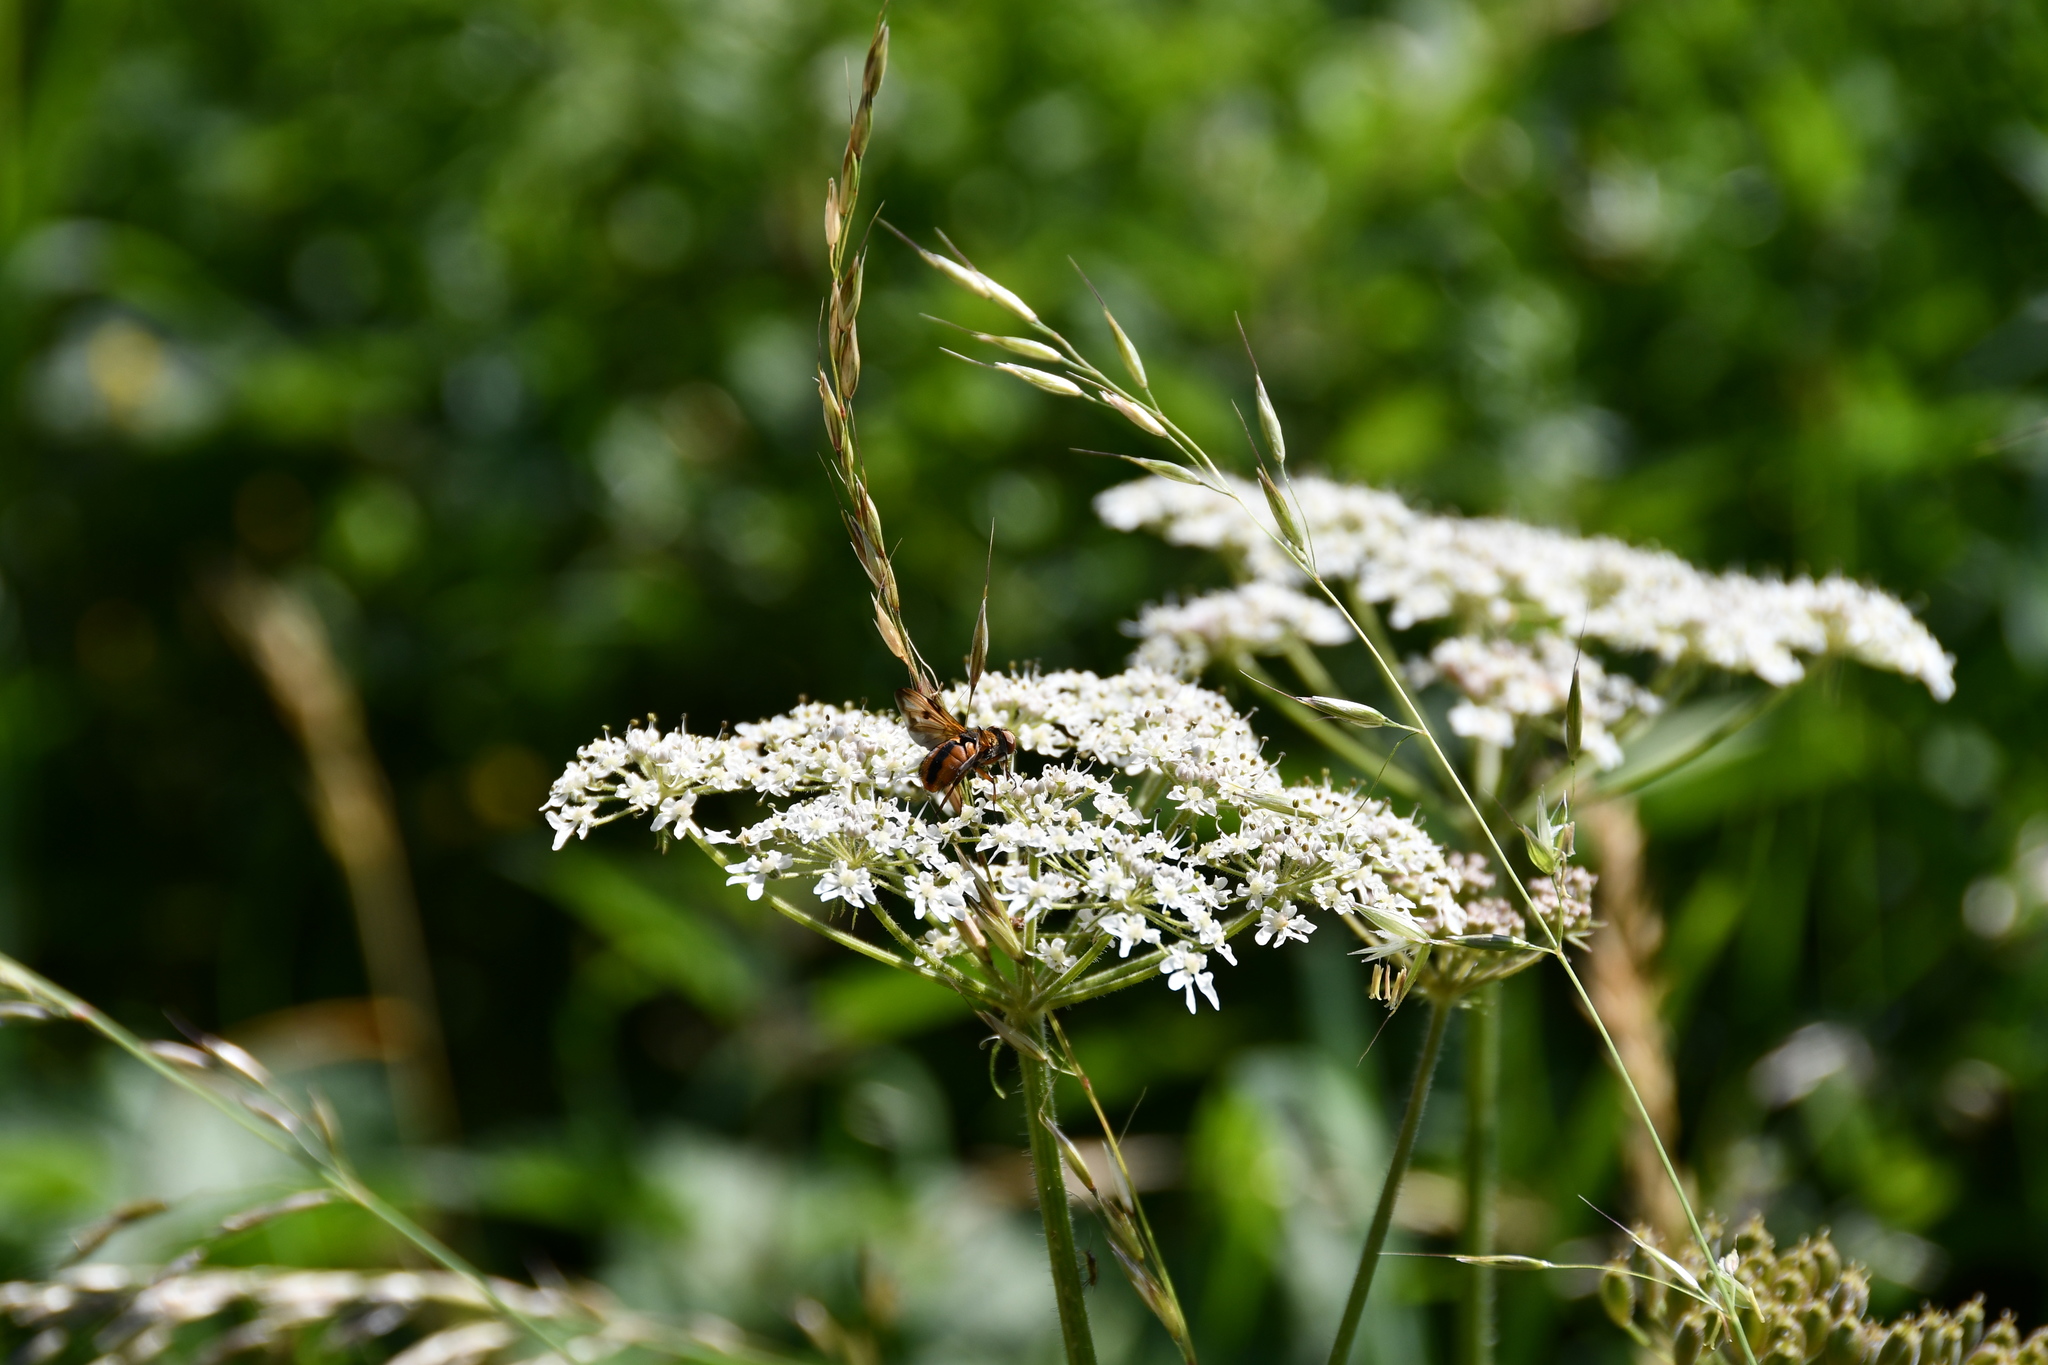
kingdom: Animalia
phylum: Arthropoda
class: Insecta
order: Diptera
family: Tachinidae
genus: Ectophasia
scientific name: Ectophasia crassipennis
